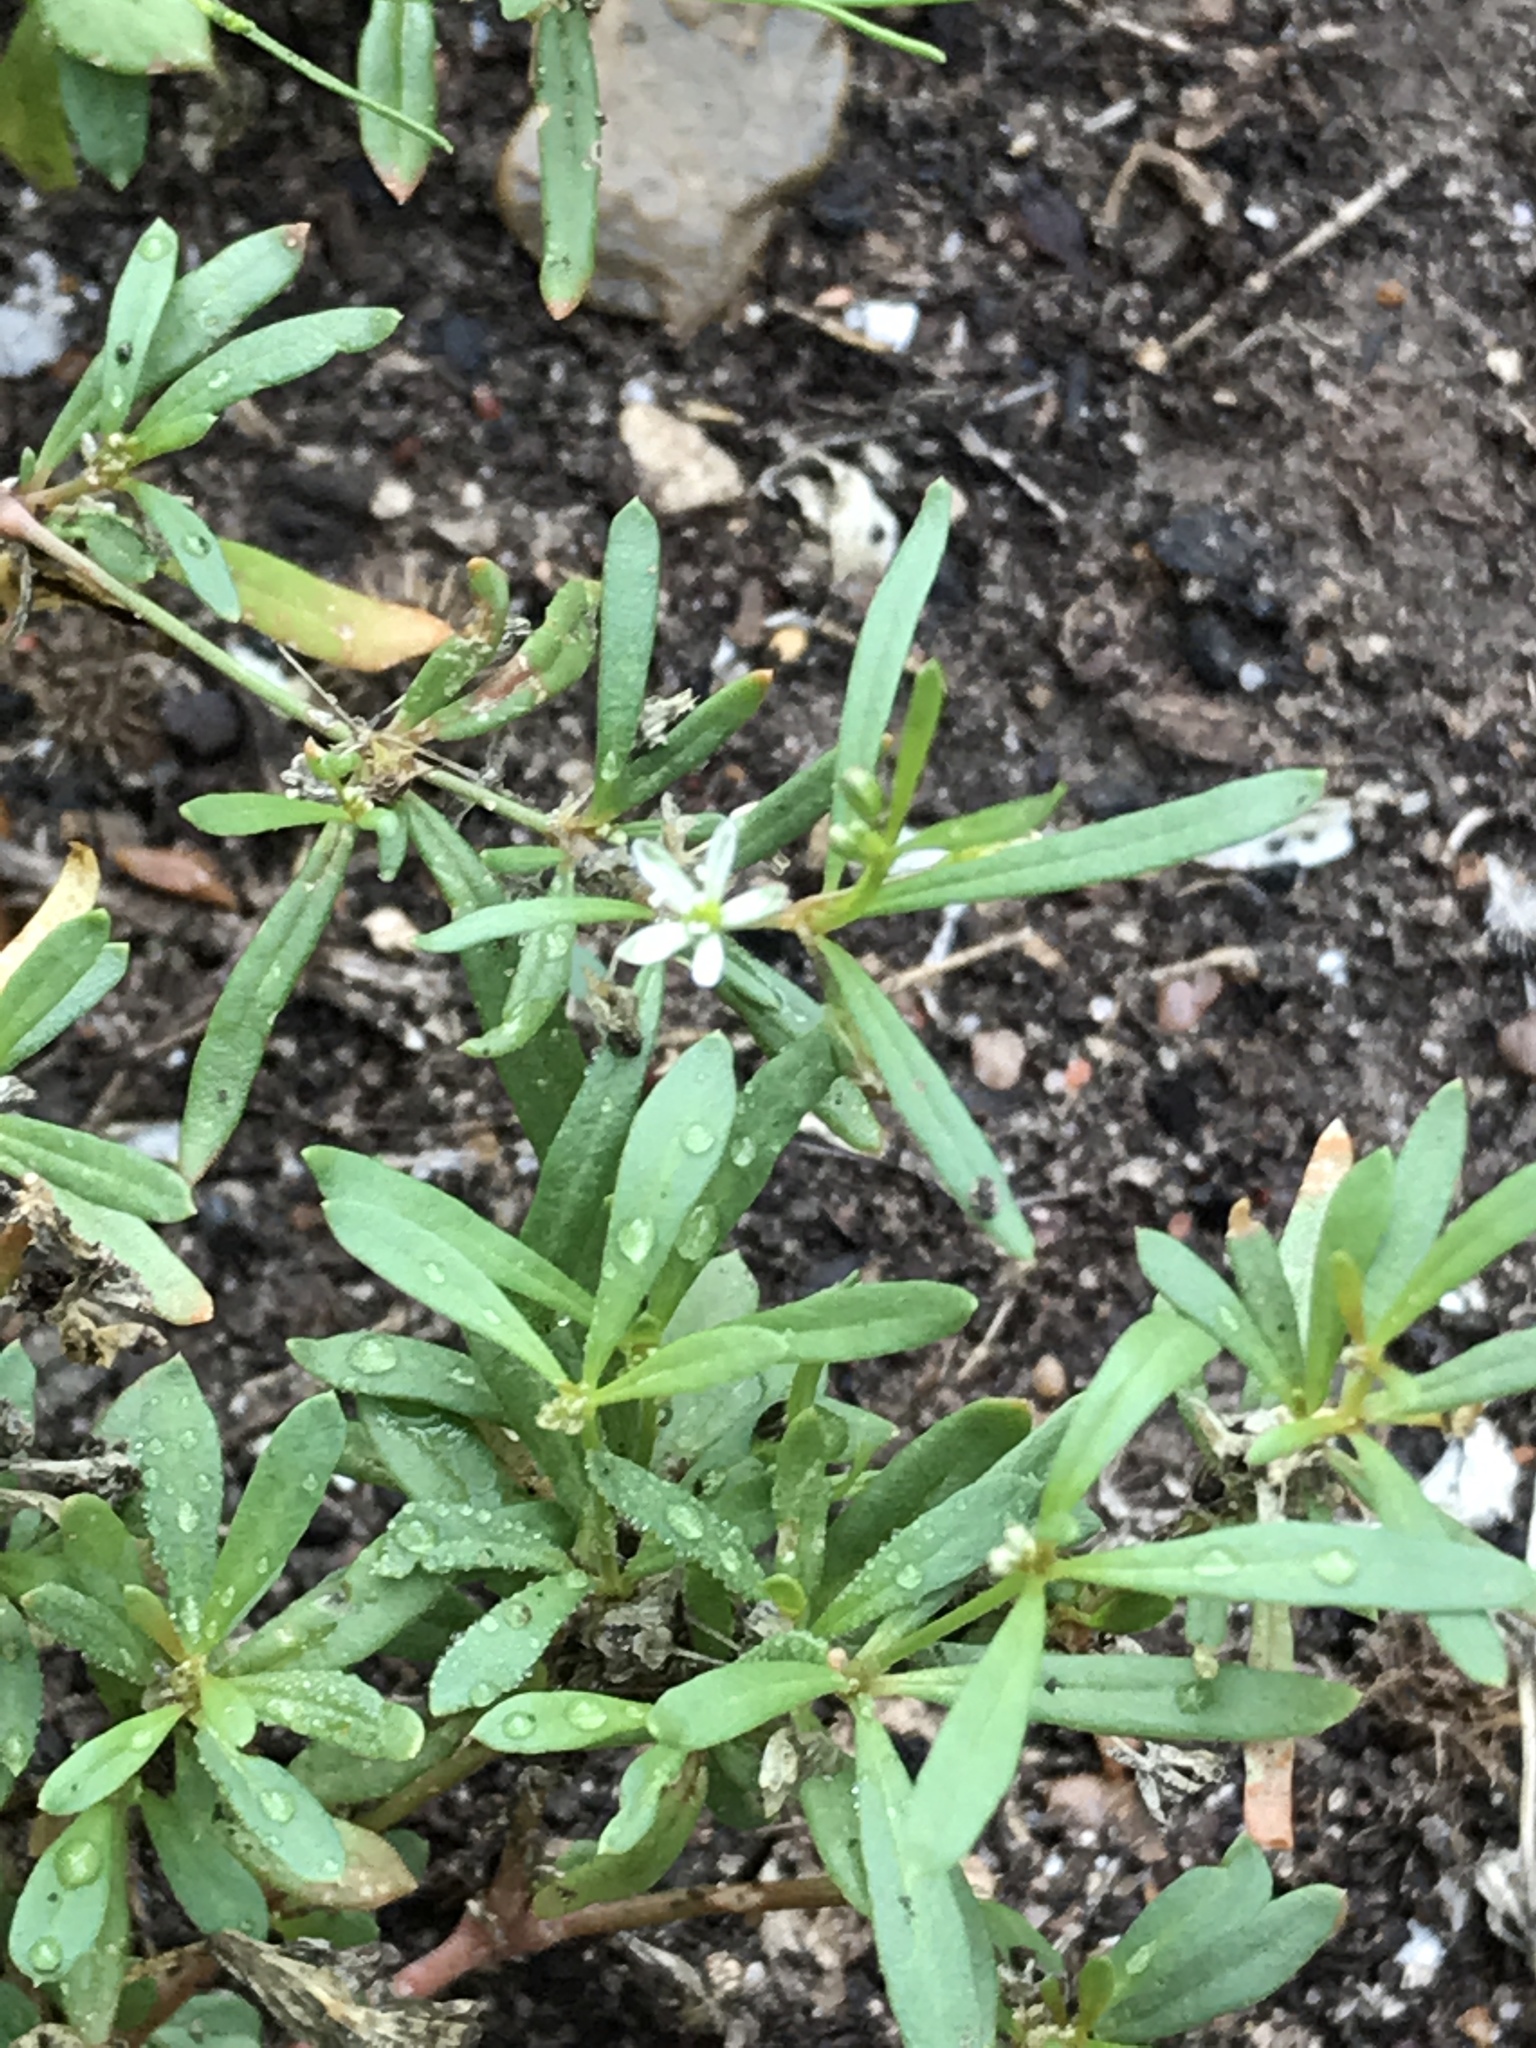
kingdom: Plantae
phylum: Tracheophyta
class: Magnoliopsida
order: Caryophyllales
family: Molluginaceae
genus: Mollugo
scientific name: Mollugo verticillata
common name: Green carpetweed
